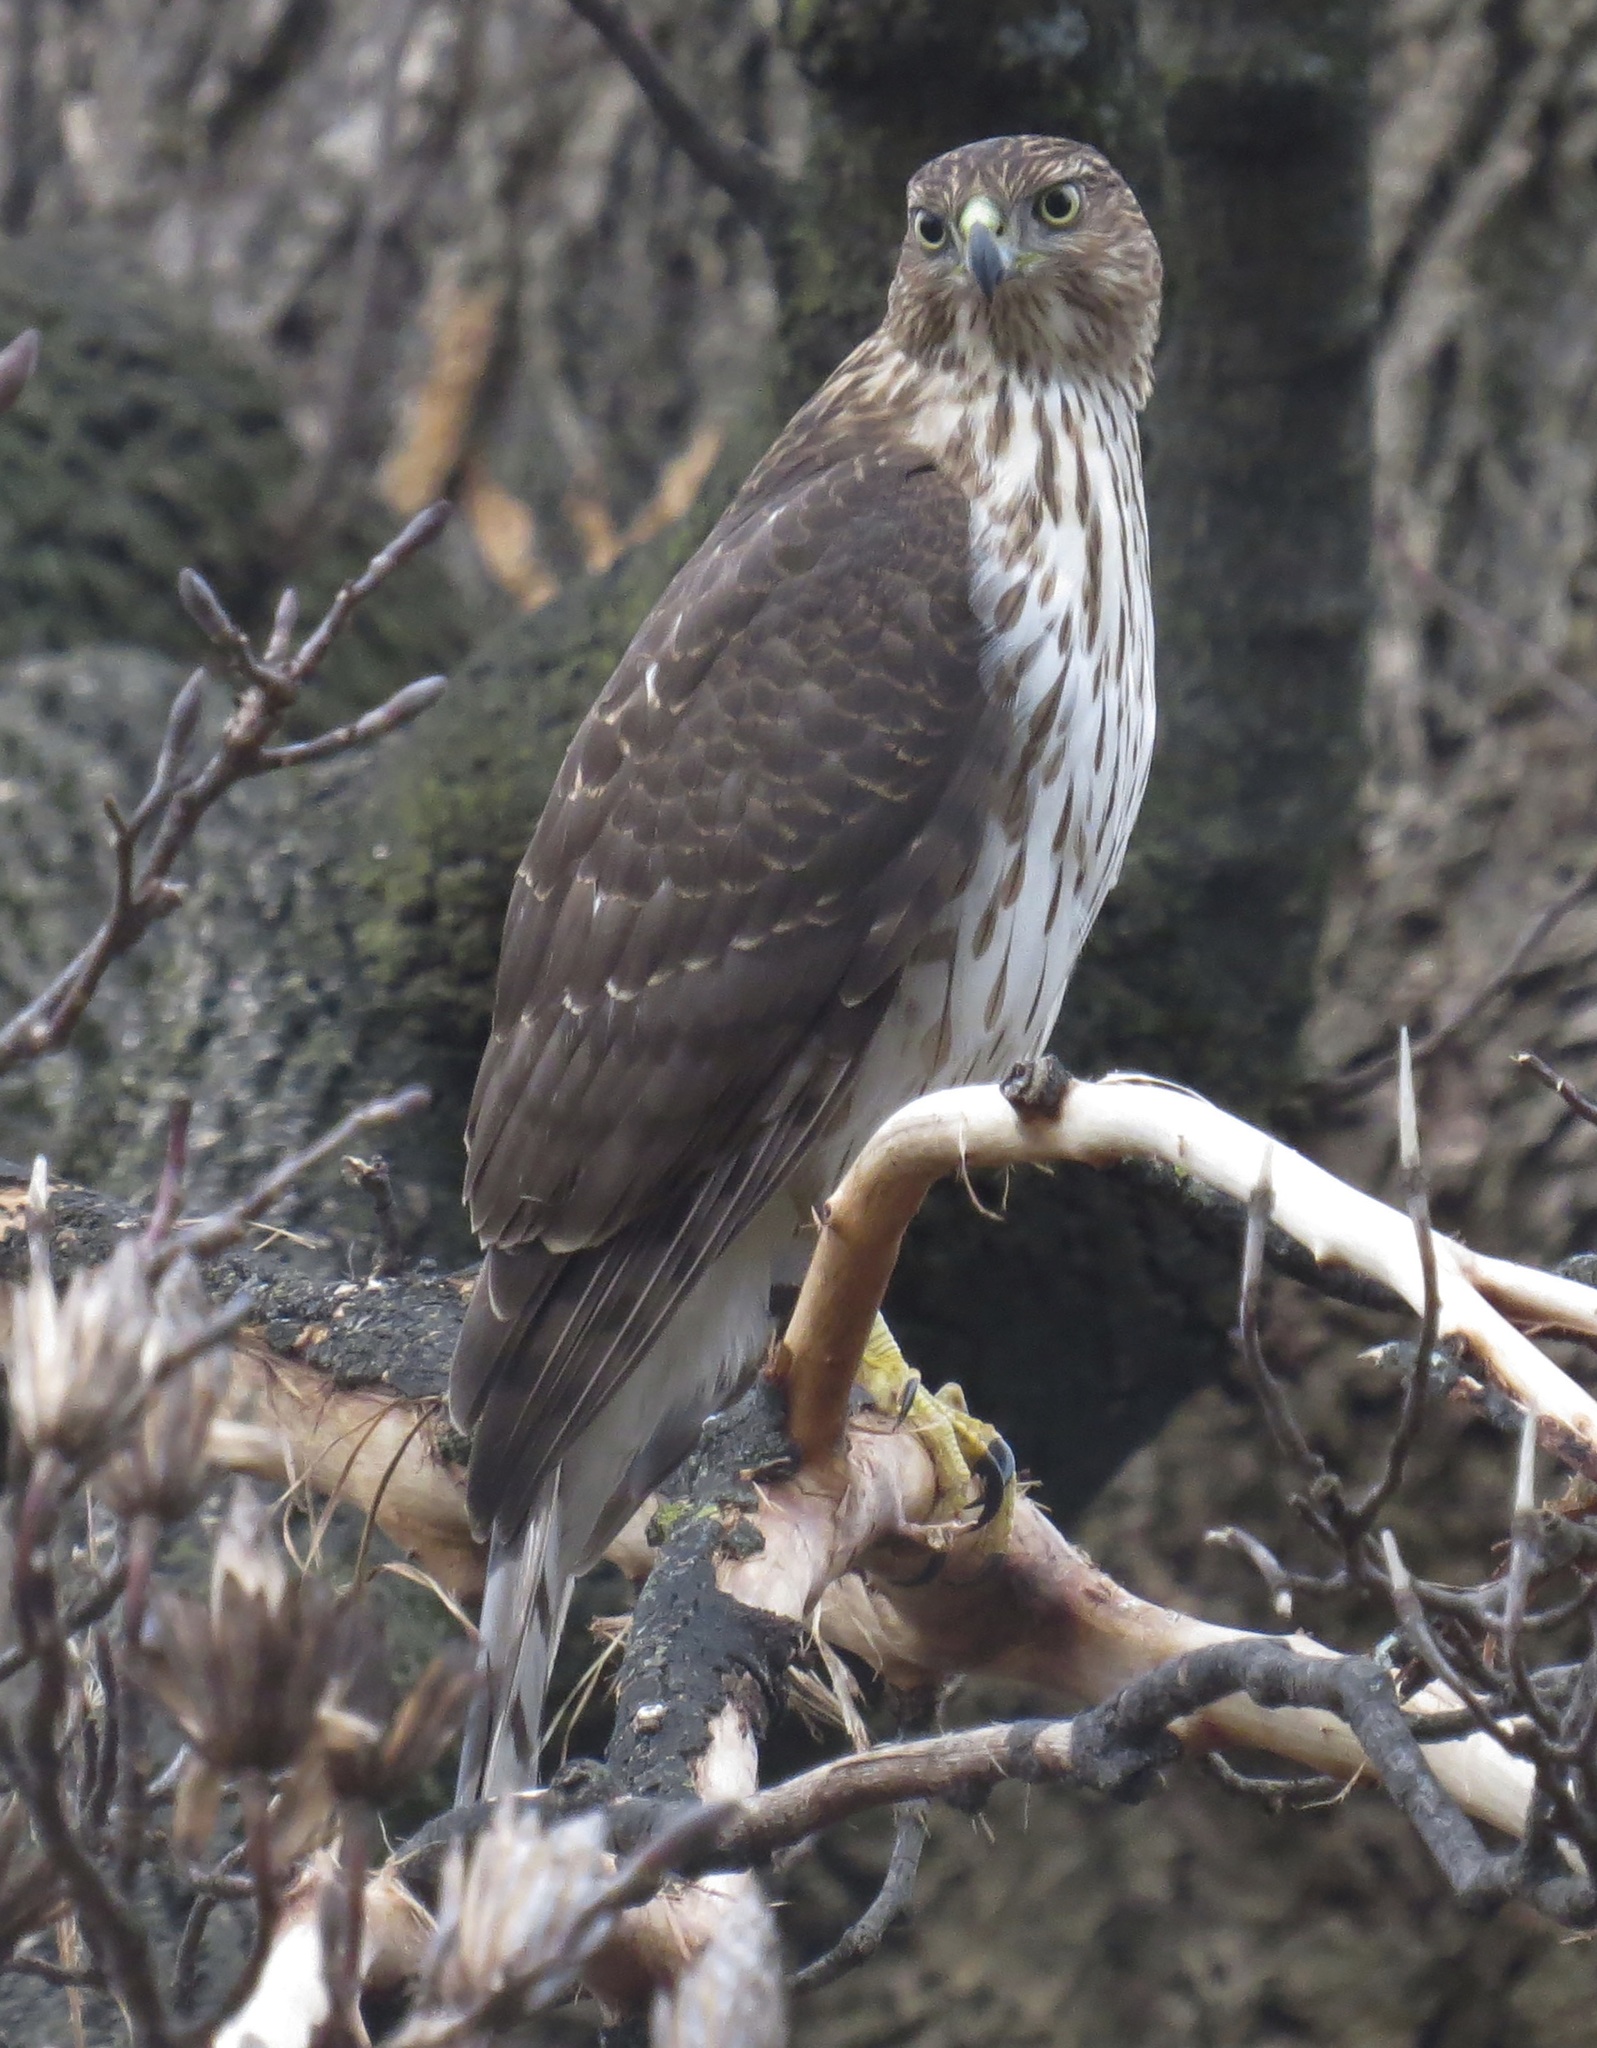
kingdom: Animalia
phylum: Chordata
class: Aves
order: Accipitriformes
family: Accipitridae
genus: Accipiter
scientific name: Accipiter cooperii
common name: Cooper's hawk
